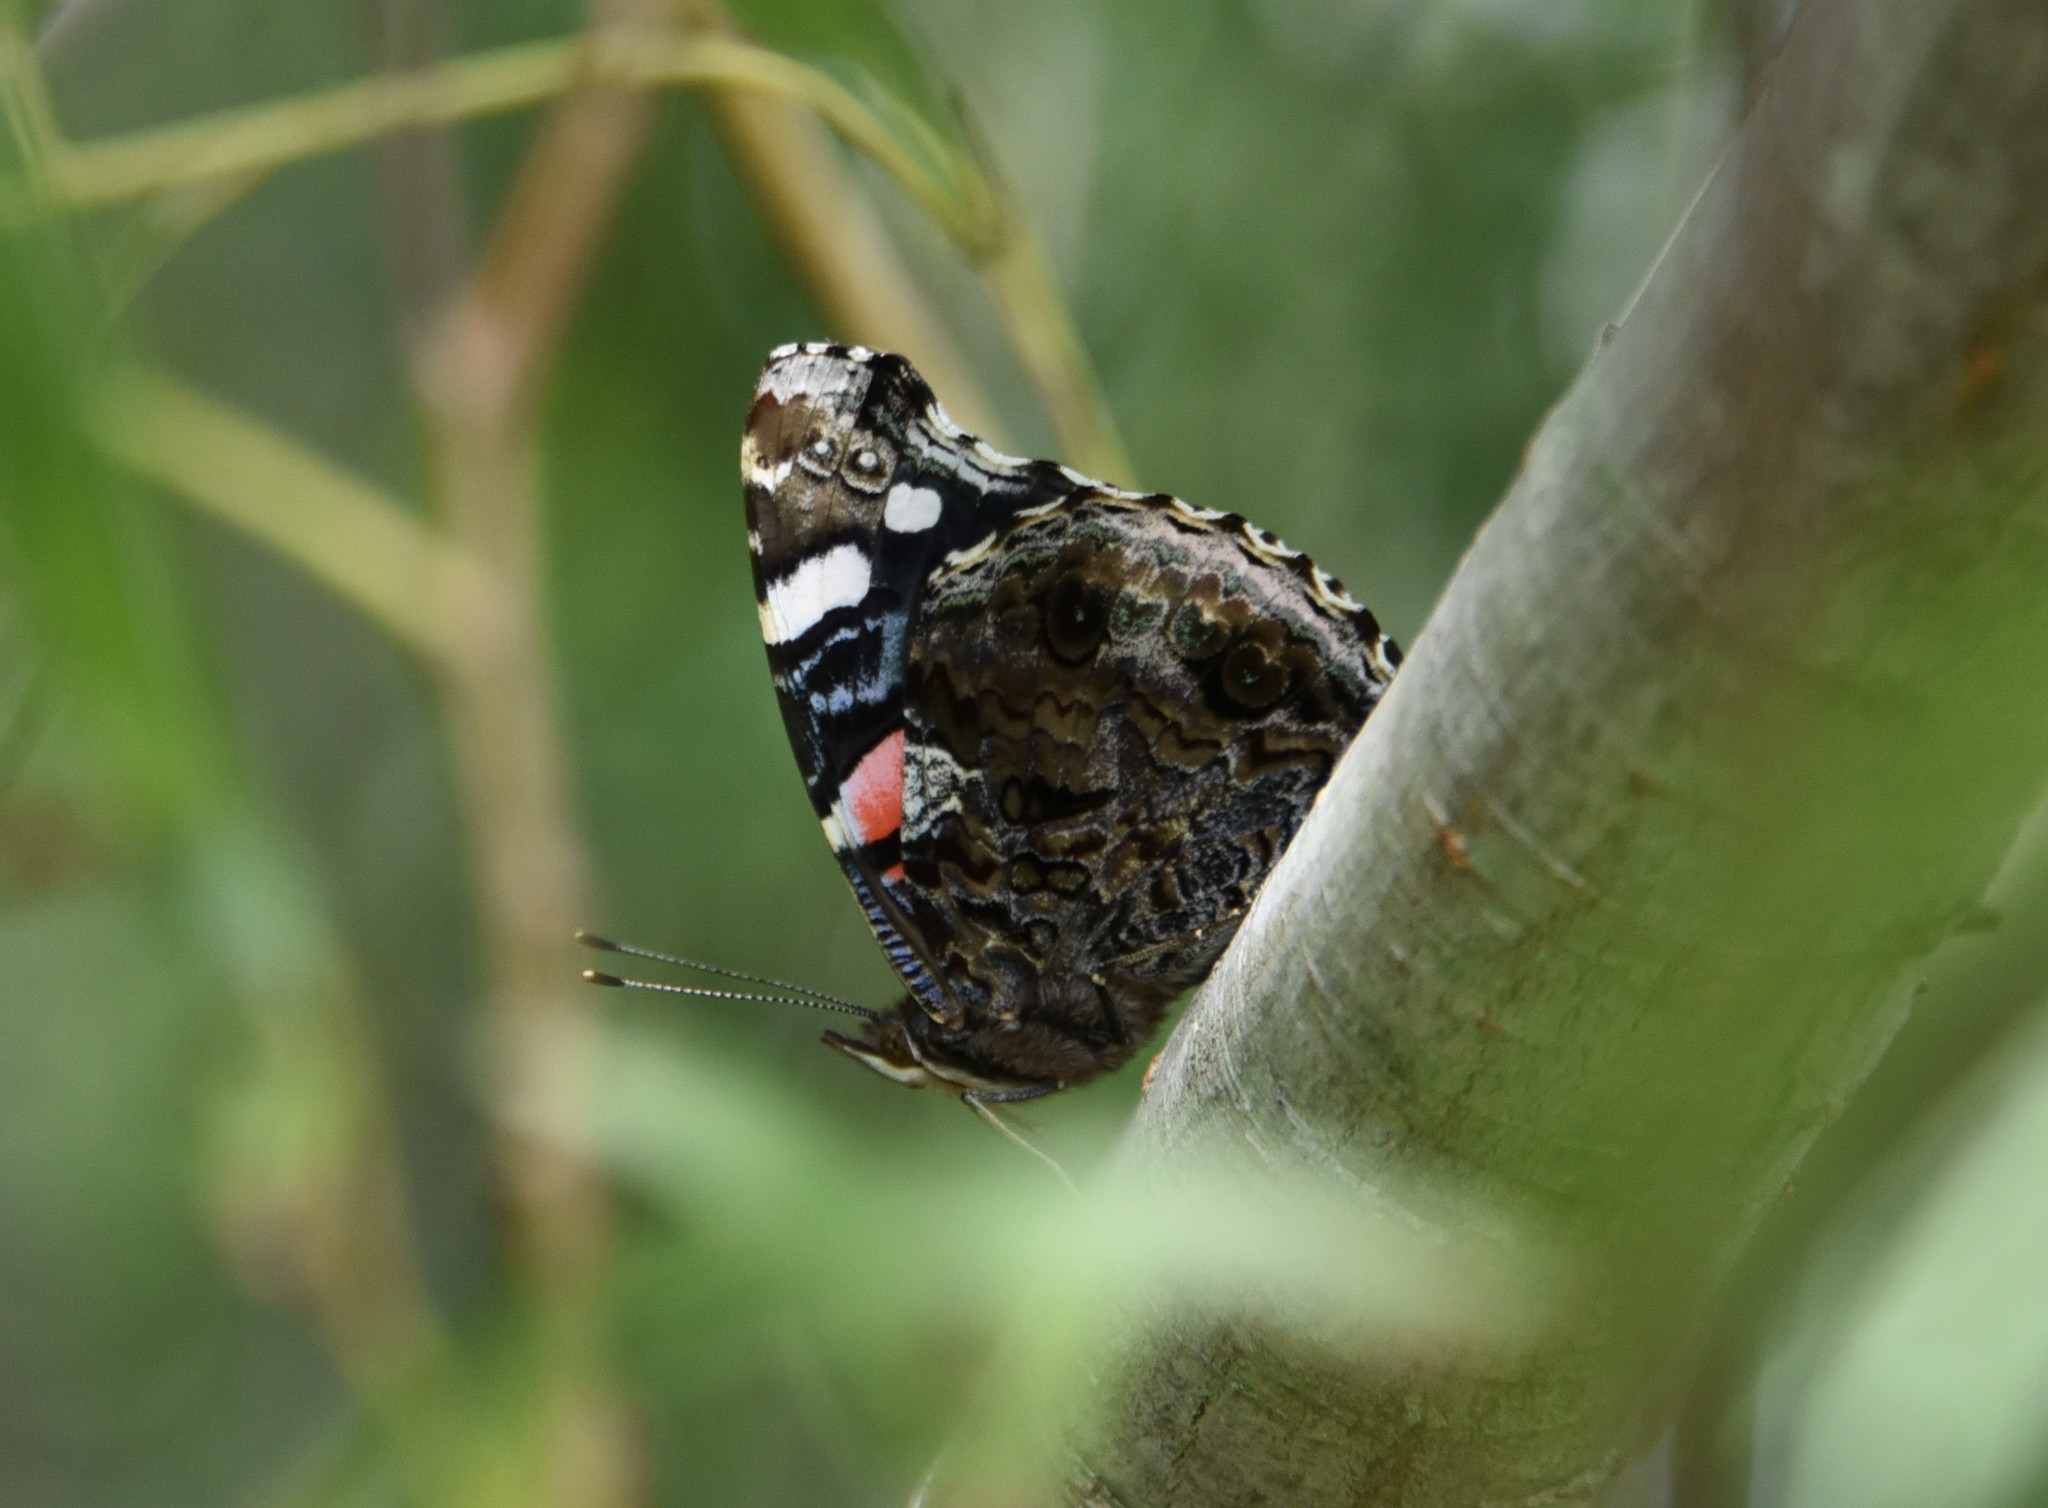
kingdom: Animalia
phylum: Arthropoda
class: Insecta
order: Lepidoptera
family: Nymphalidae
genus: Vanessa
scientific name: Vanessa atalanta
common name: Red admiral
